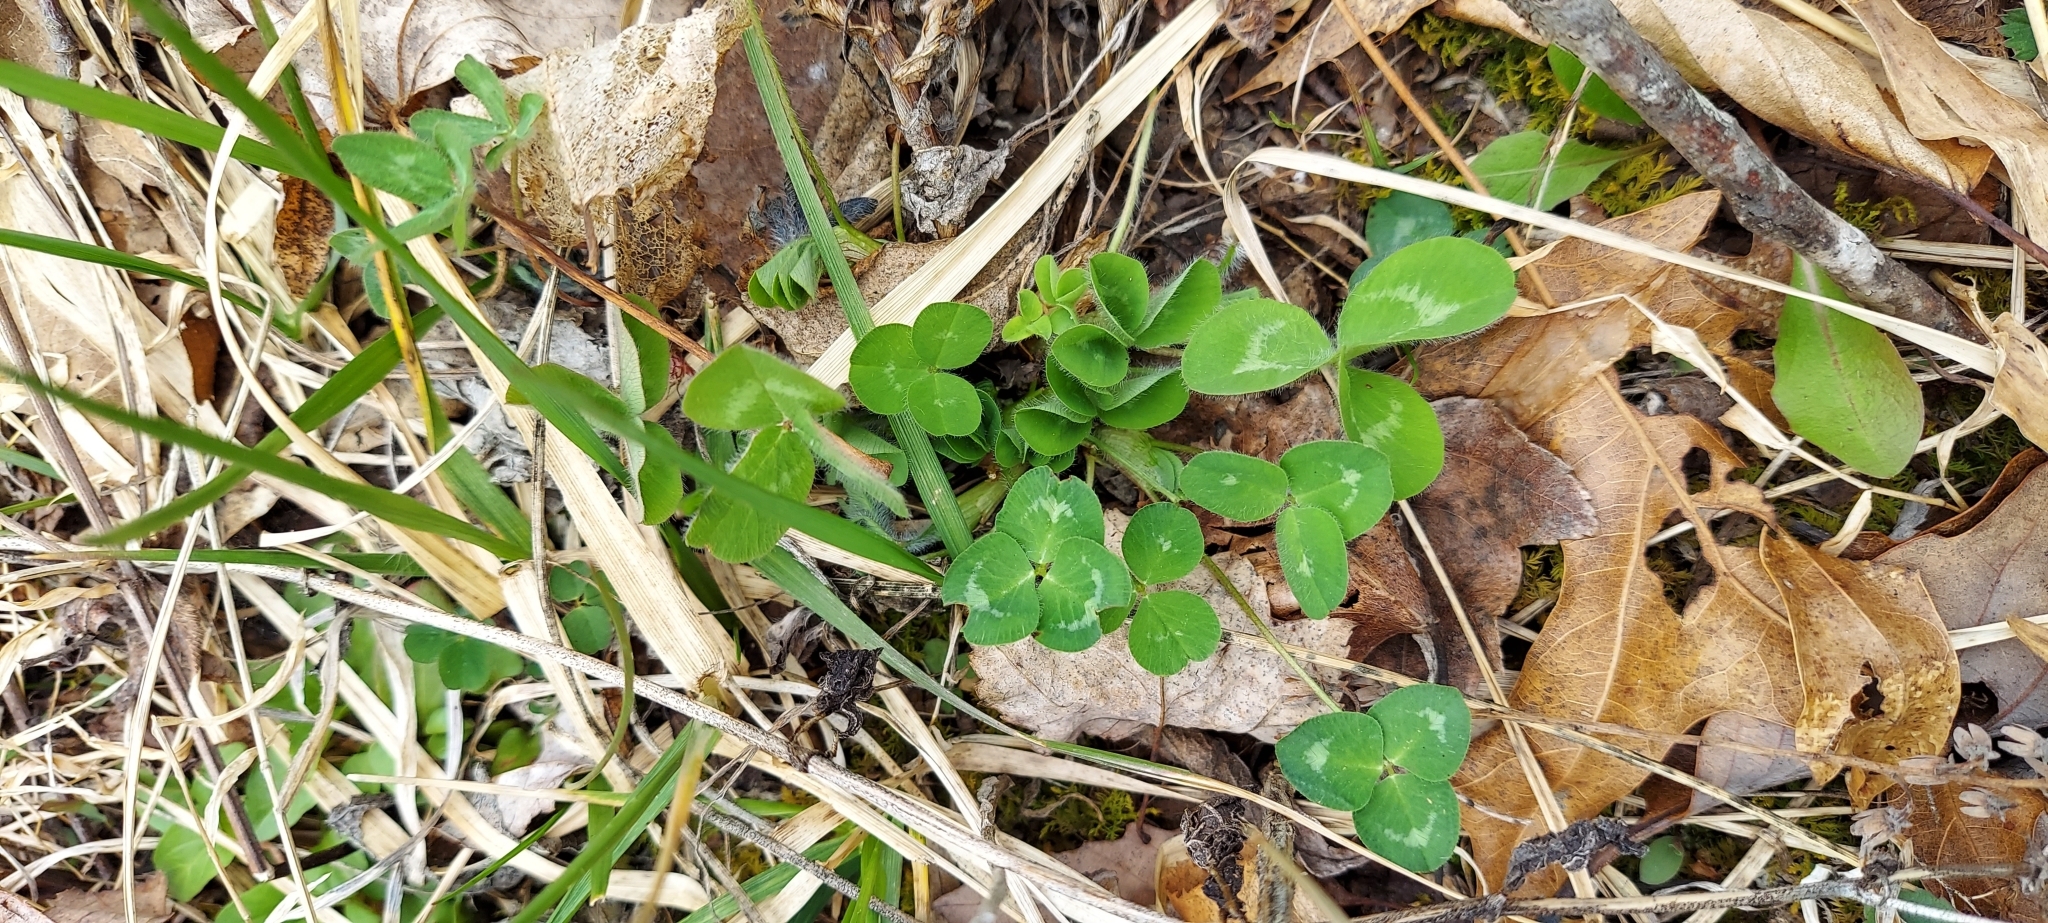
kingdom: Plantae
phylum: Tracheophyta
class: Magnoliopsida
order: Fabales
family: Fabaceae
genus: Trifolium
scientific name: Trifolium pratense
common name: Red clover
